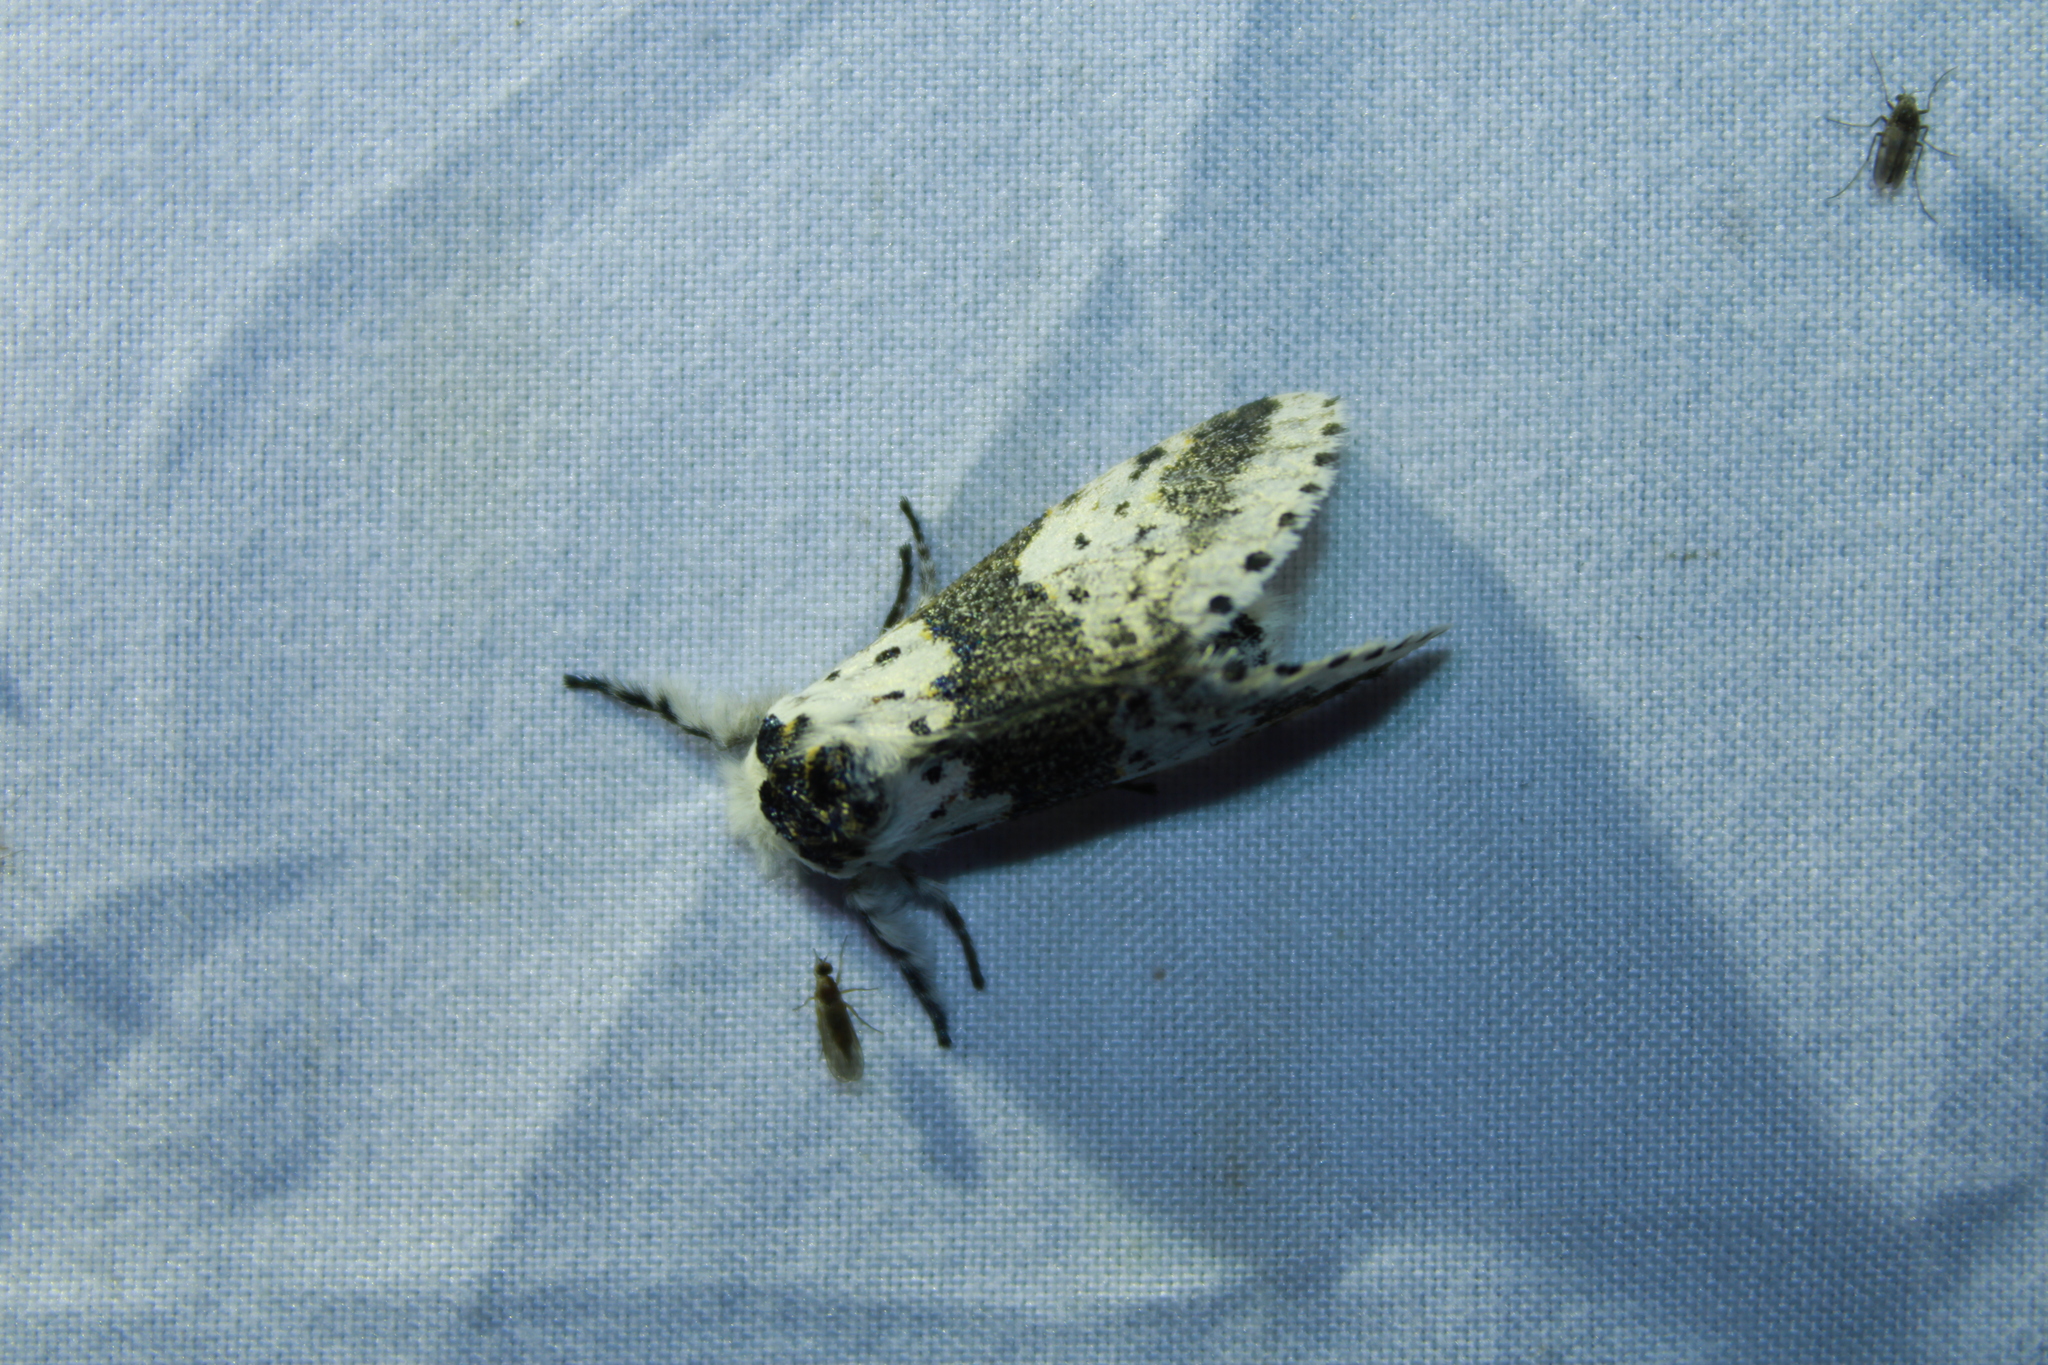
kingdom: Animalia
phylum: Arthropoda
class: Insecta
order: Lepidoptera
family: Notodontidae
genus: Furcula
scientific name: Furcula borealis
